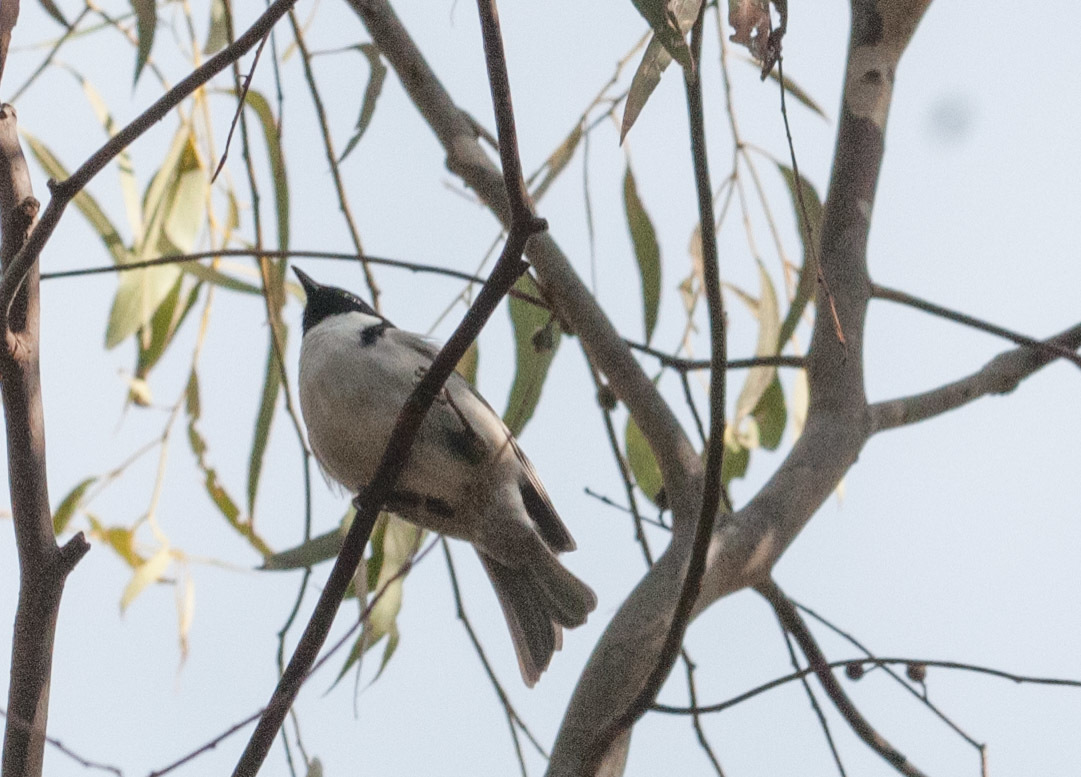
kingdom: Animalia
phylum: Chordata
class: Aves
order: Passeriformes
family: Meliphagidae
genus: Melithreptus
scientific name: Melithreptus affinis
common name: Black-headed honeyeater
